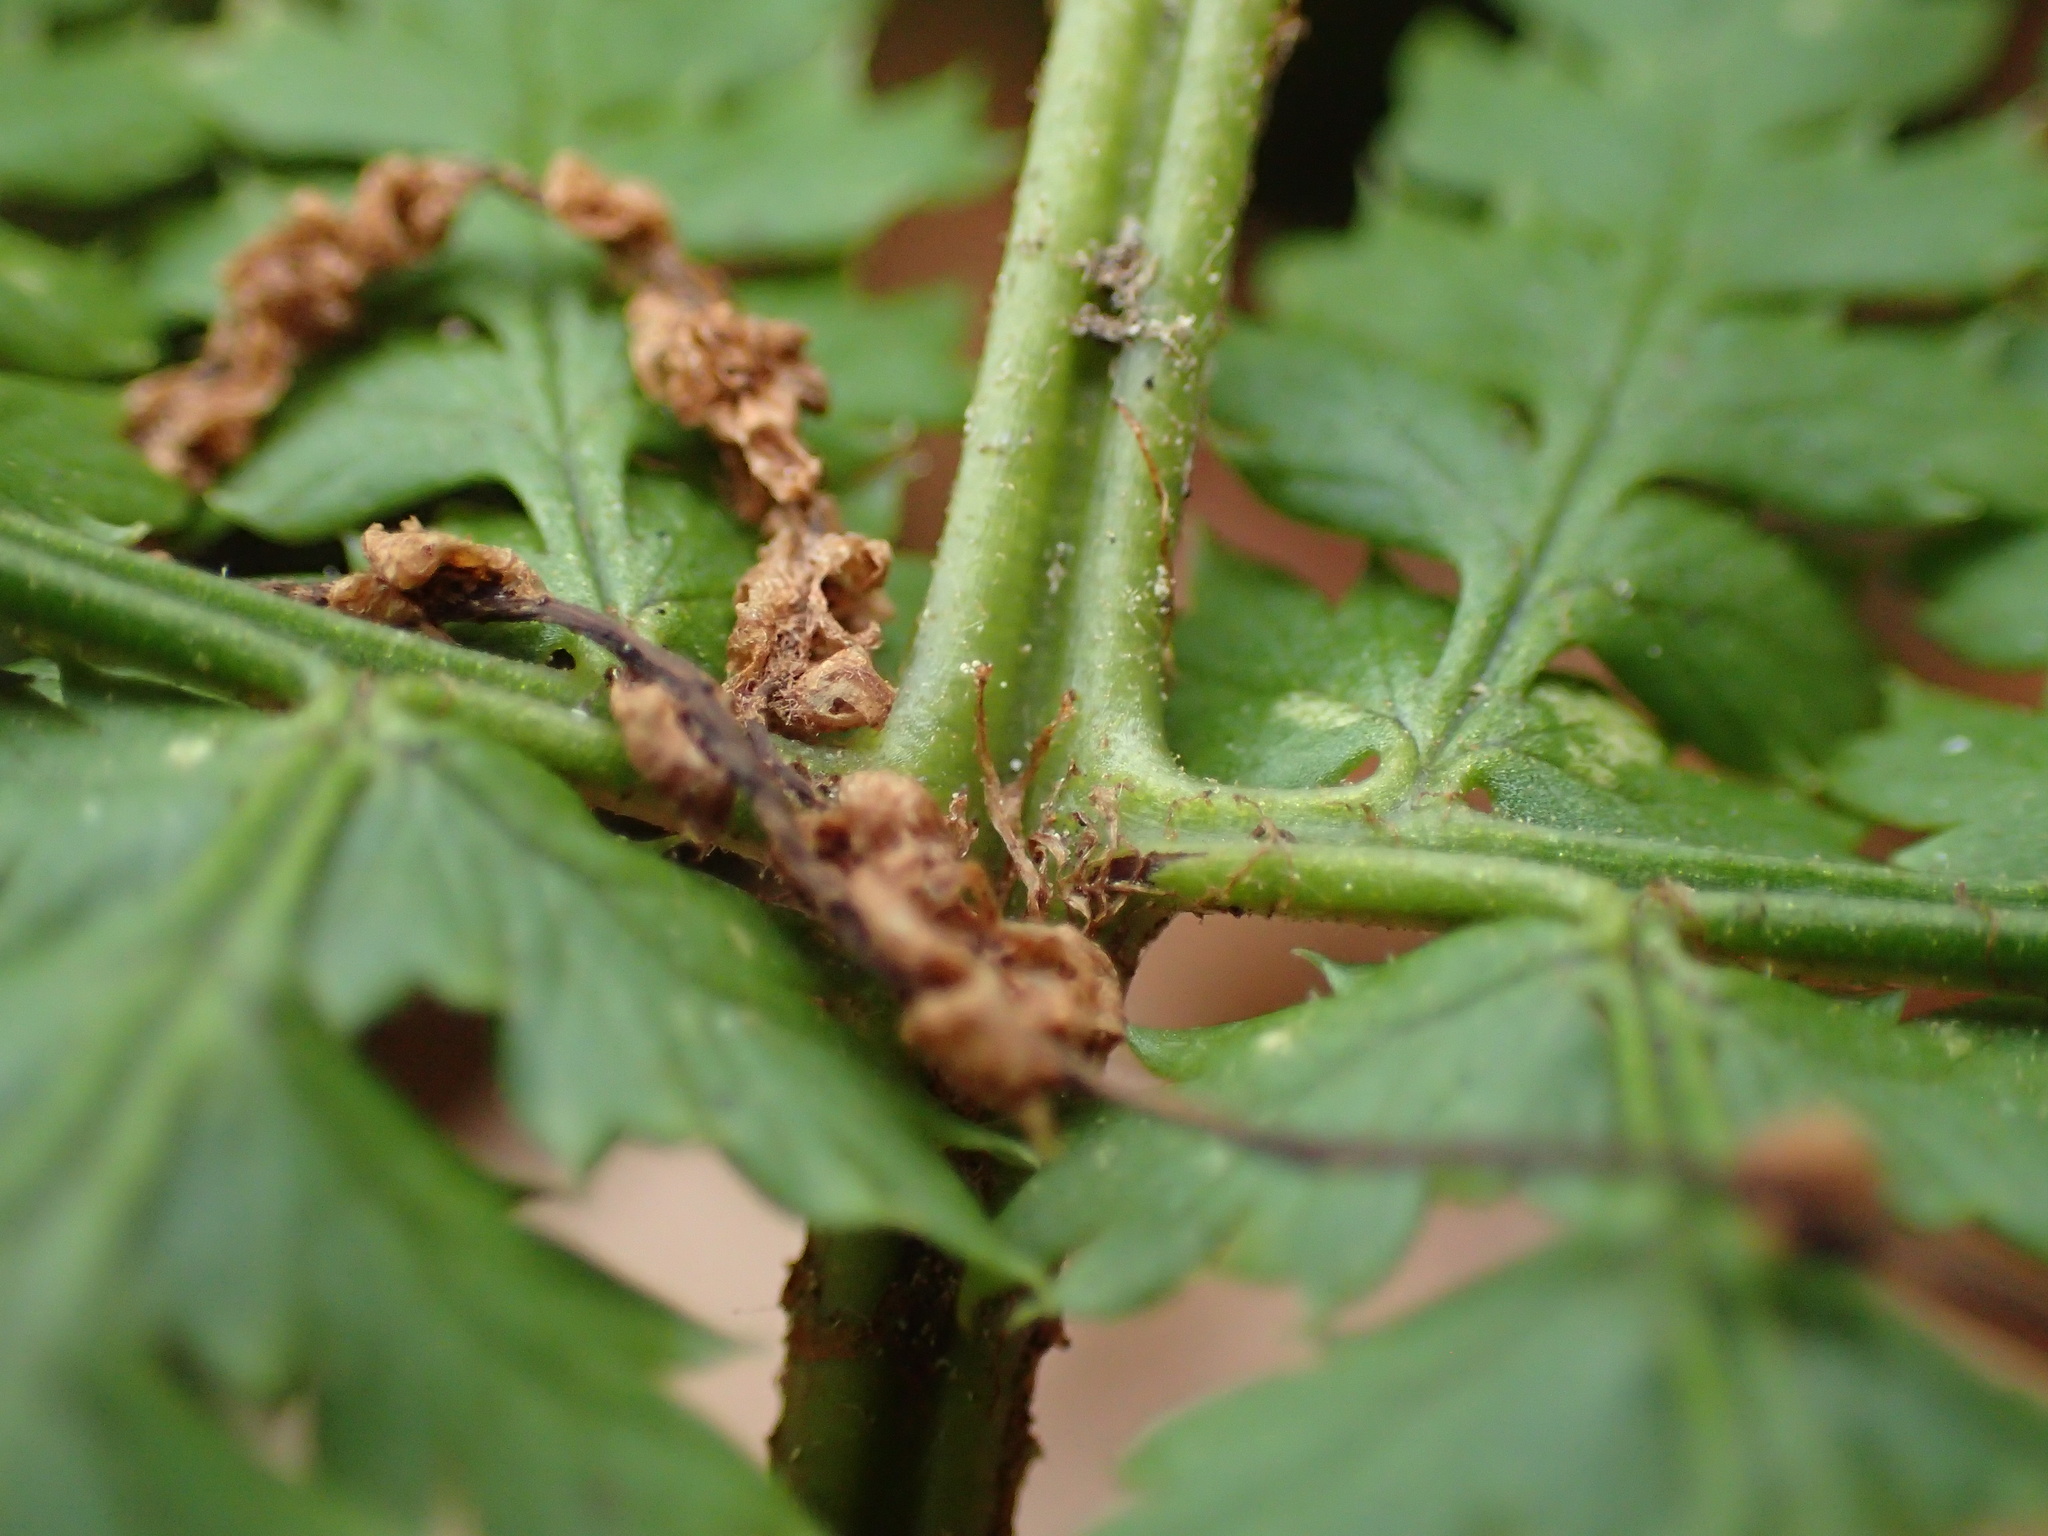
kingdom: Plantae
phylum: Tracheophyta
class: Polypodiopsida
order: Polypodiales
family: Dryopteridaceae
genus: Dryopteris
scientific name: Dryopteris intermedia
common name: Evergreen wood fern
